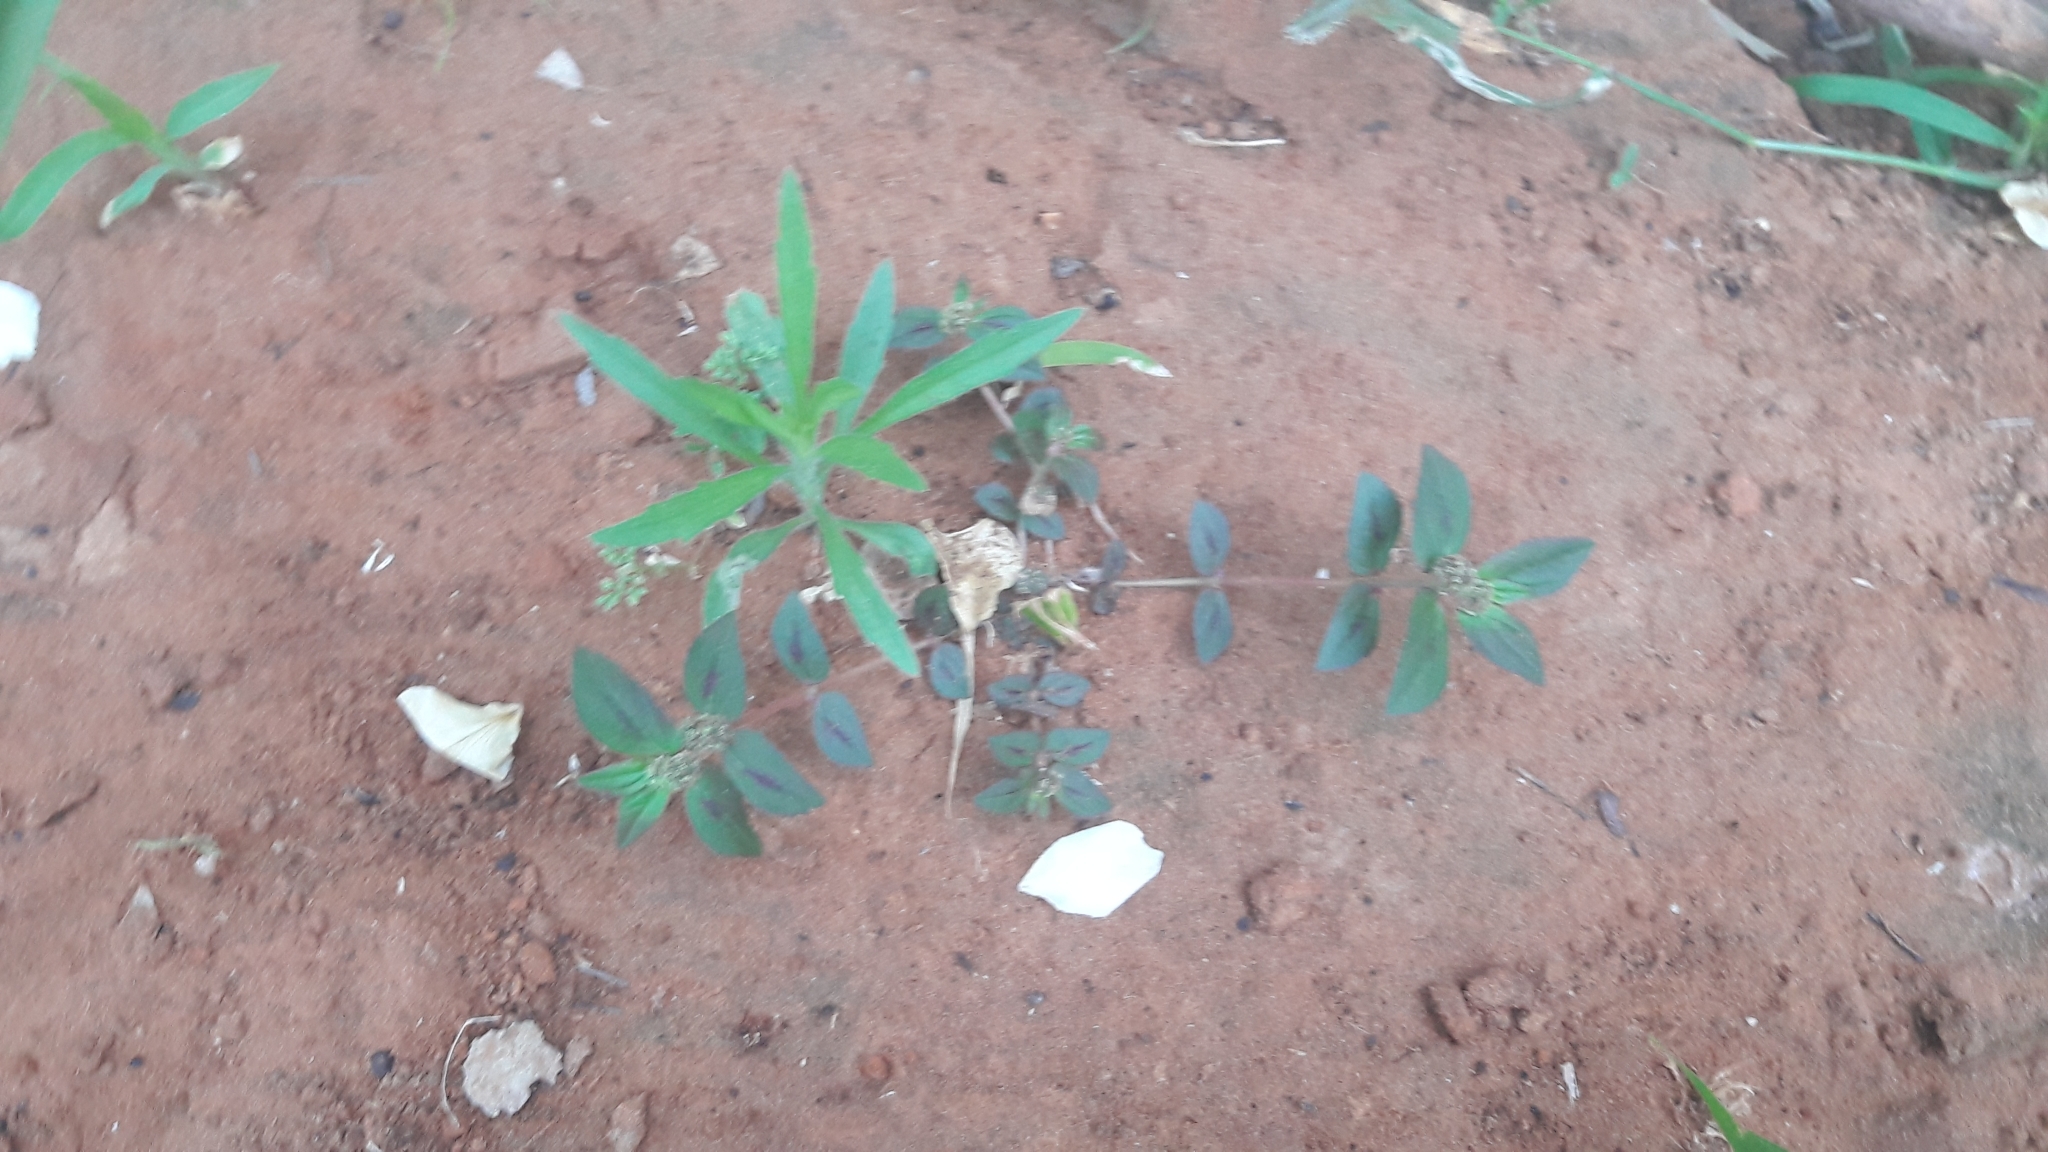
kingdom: Plantae
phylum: Tracheophyta
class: Magnoliopsida
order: Malpighiales
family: Euphorbiaceae
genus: Euphorbia
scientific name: Euphorbia hirta
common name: Pillpod sandmat
